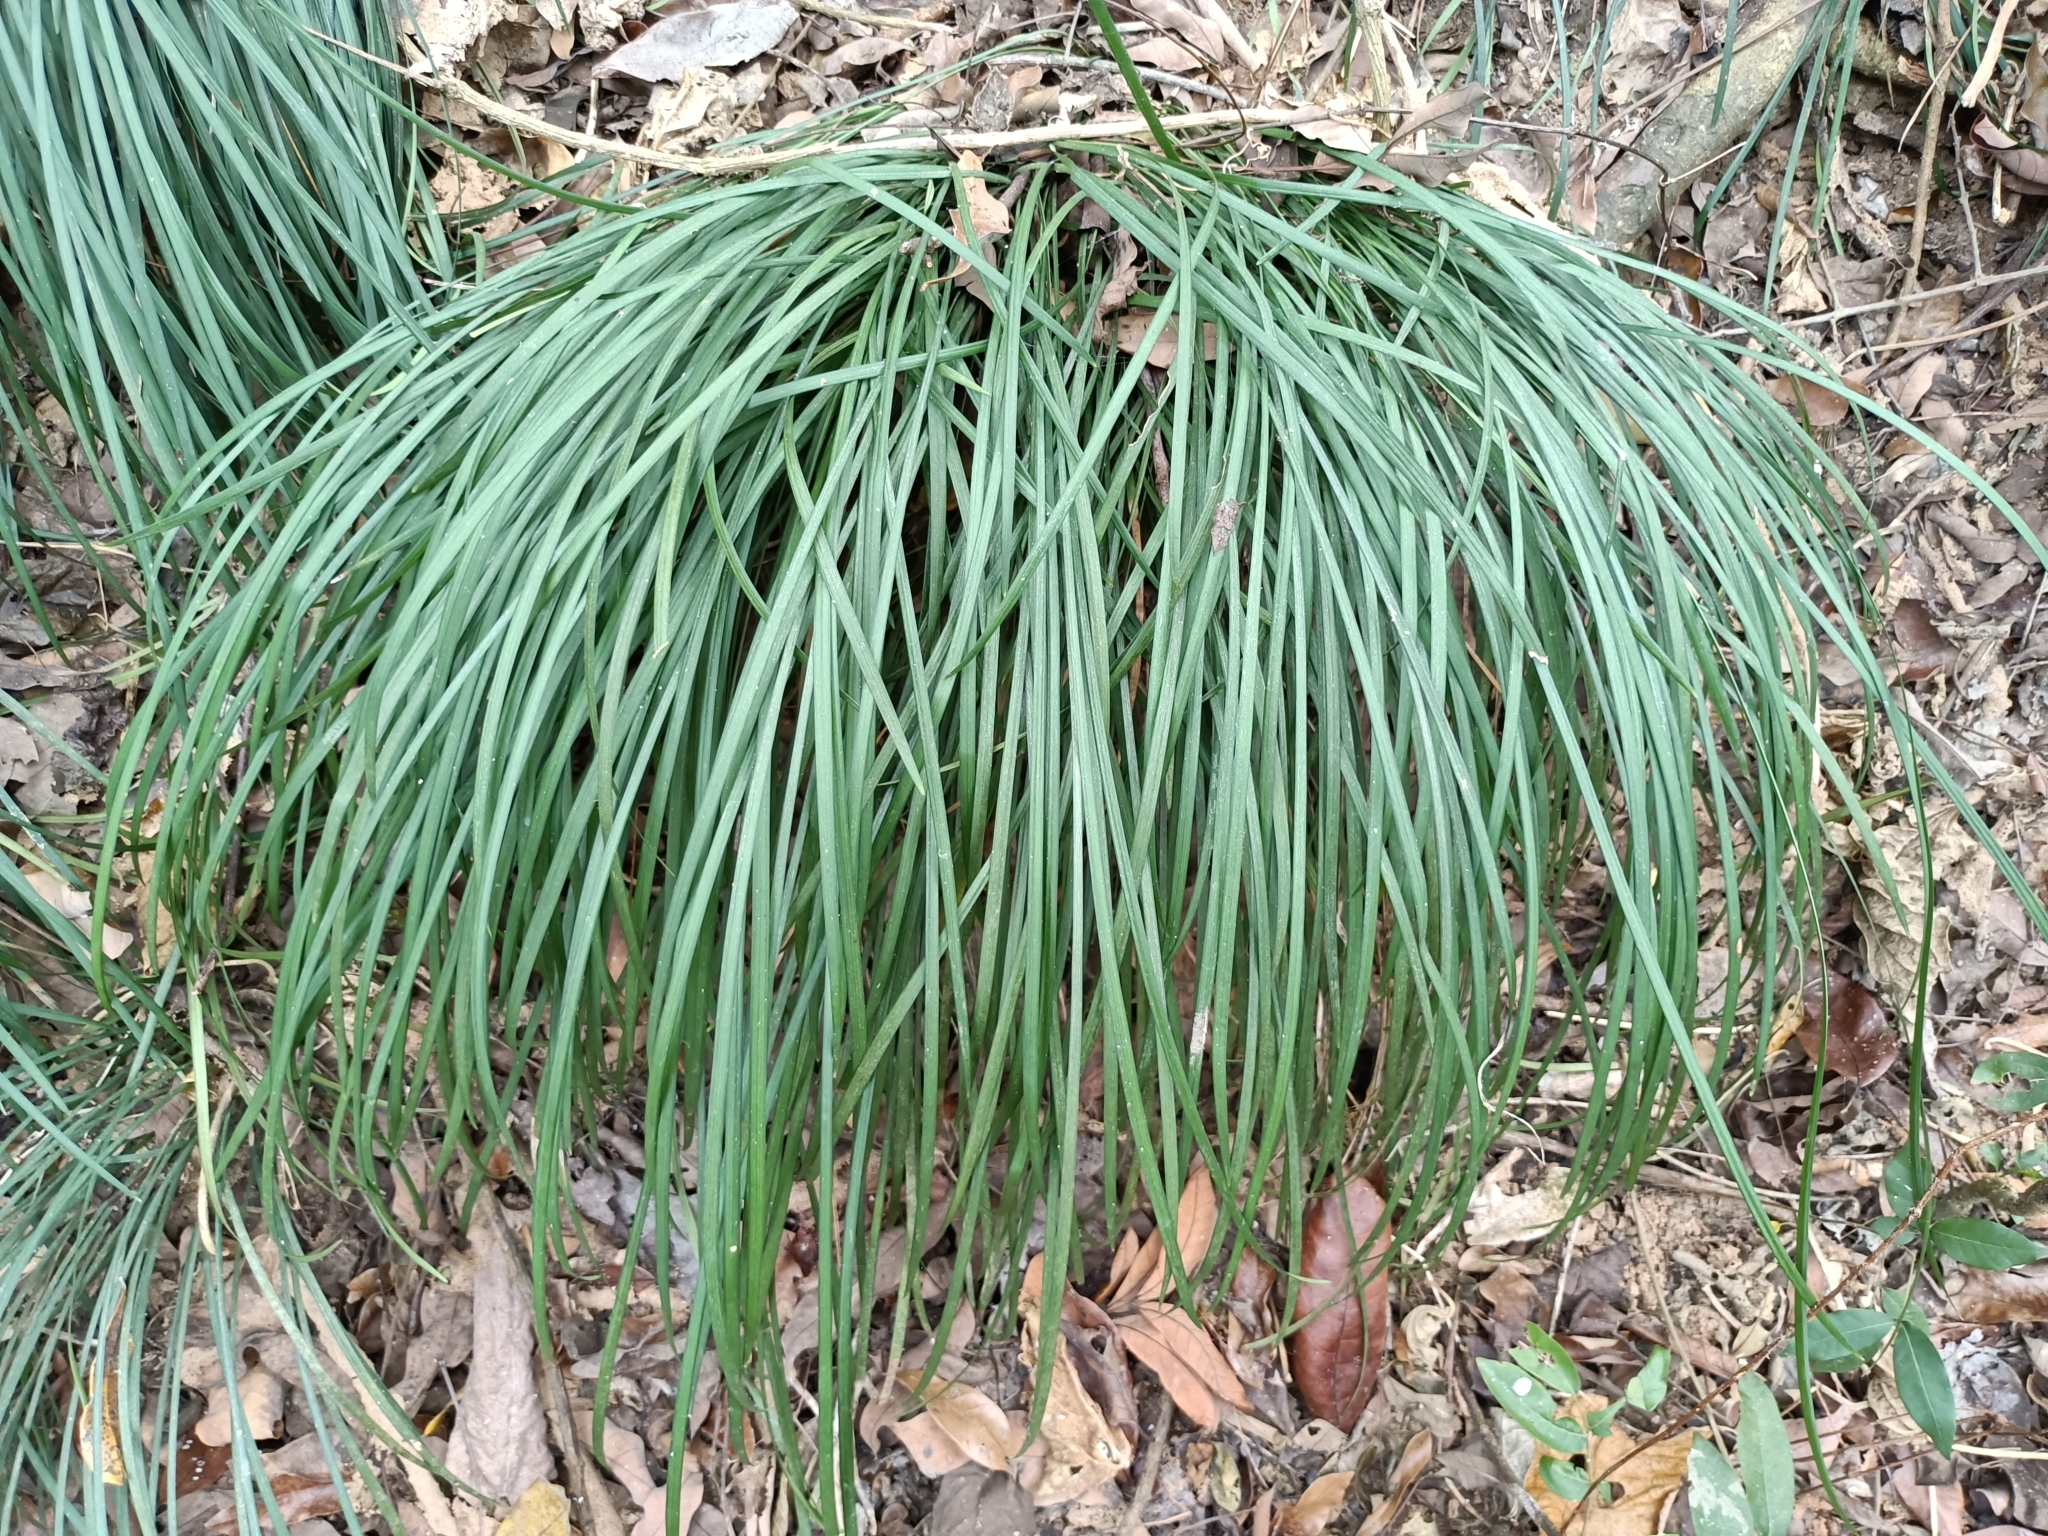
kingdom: Plantae
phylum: Tracheophyta
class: Liliopsida
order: Asparagales
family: Asparagaceae
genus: Liriope
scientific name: Liriope graminifolia
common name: Lilyturf
